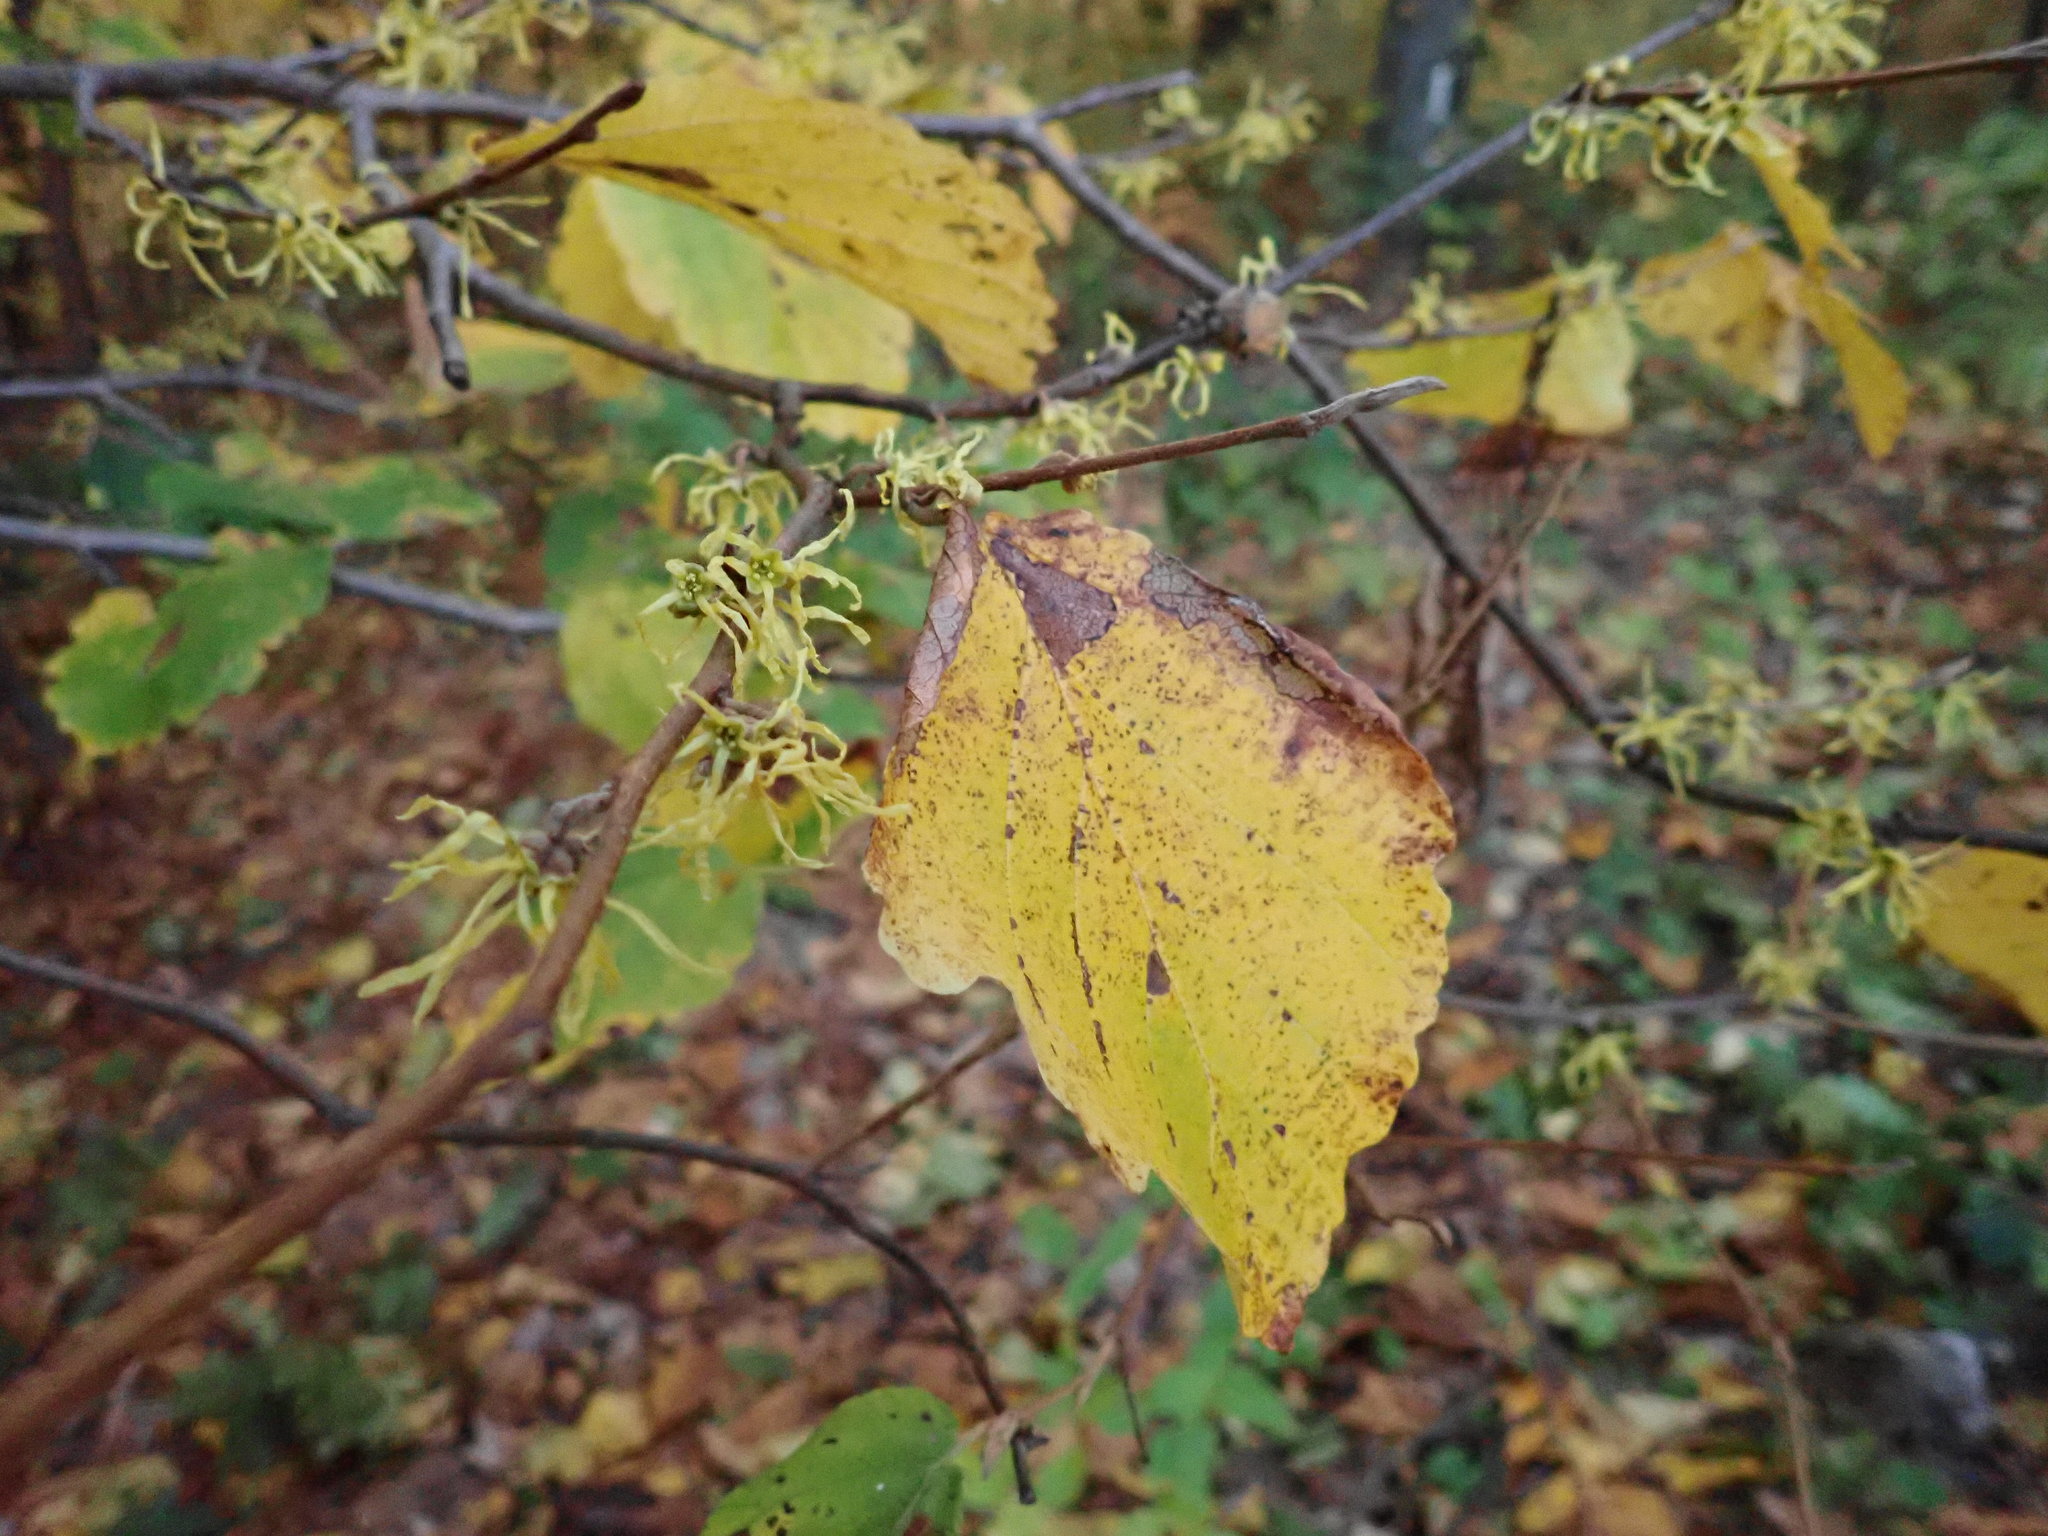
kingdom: Plantae
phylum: Tracheophyta
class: Magnoliopsida
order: Saxifragales
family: Hamamelidaceae
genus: Hamamelis
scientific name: Hamamelis virginiana
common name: Witch-hazel
